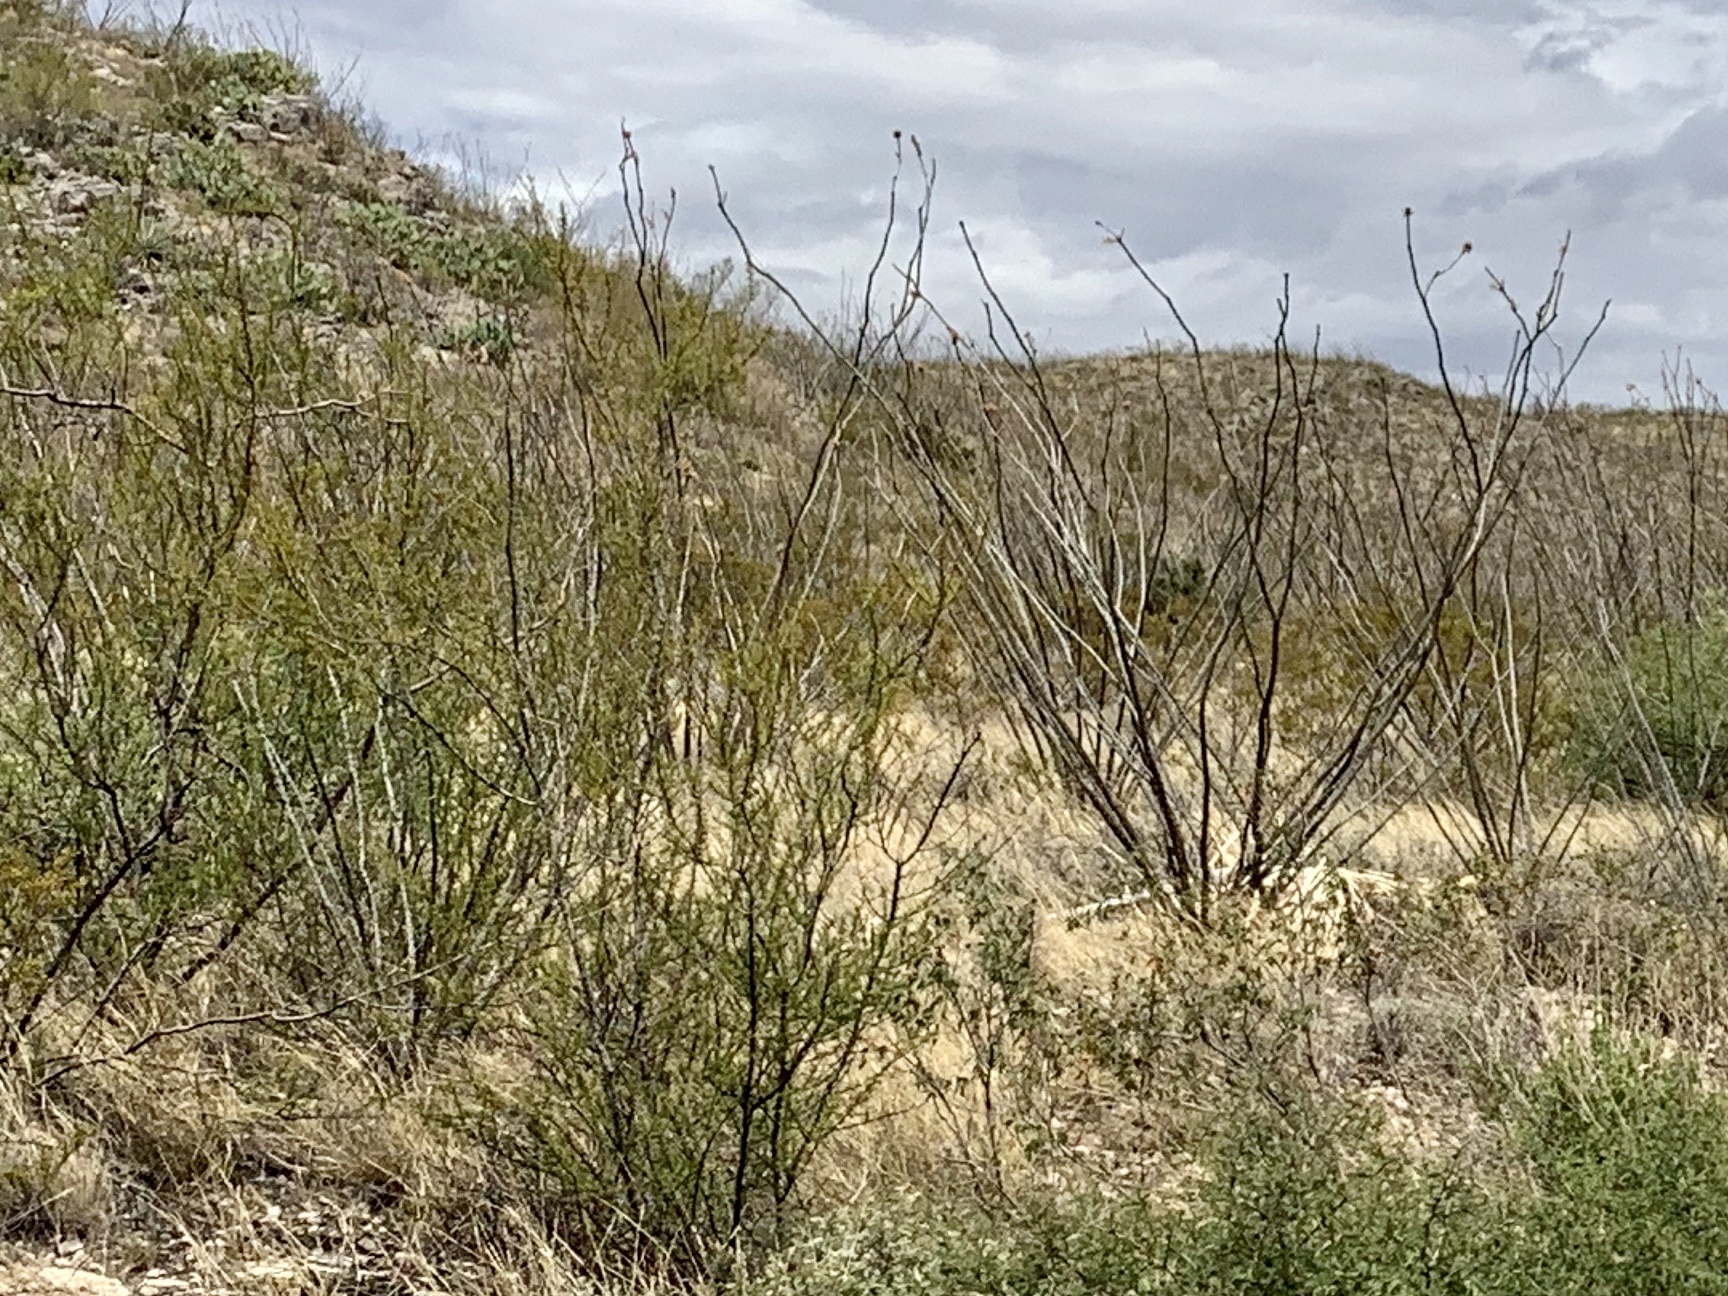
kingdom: Plantae
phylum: Tracheophyta
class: Magnoliopsida
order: Ericales
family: Fouquieriaceae
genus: Fouquieria
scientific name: Fouquieria splendens
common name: Vine-cactus
